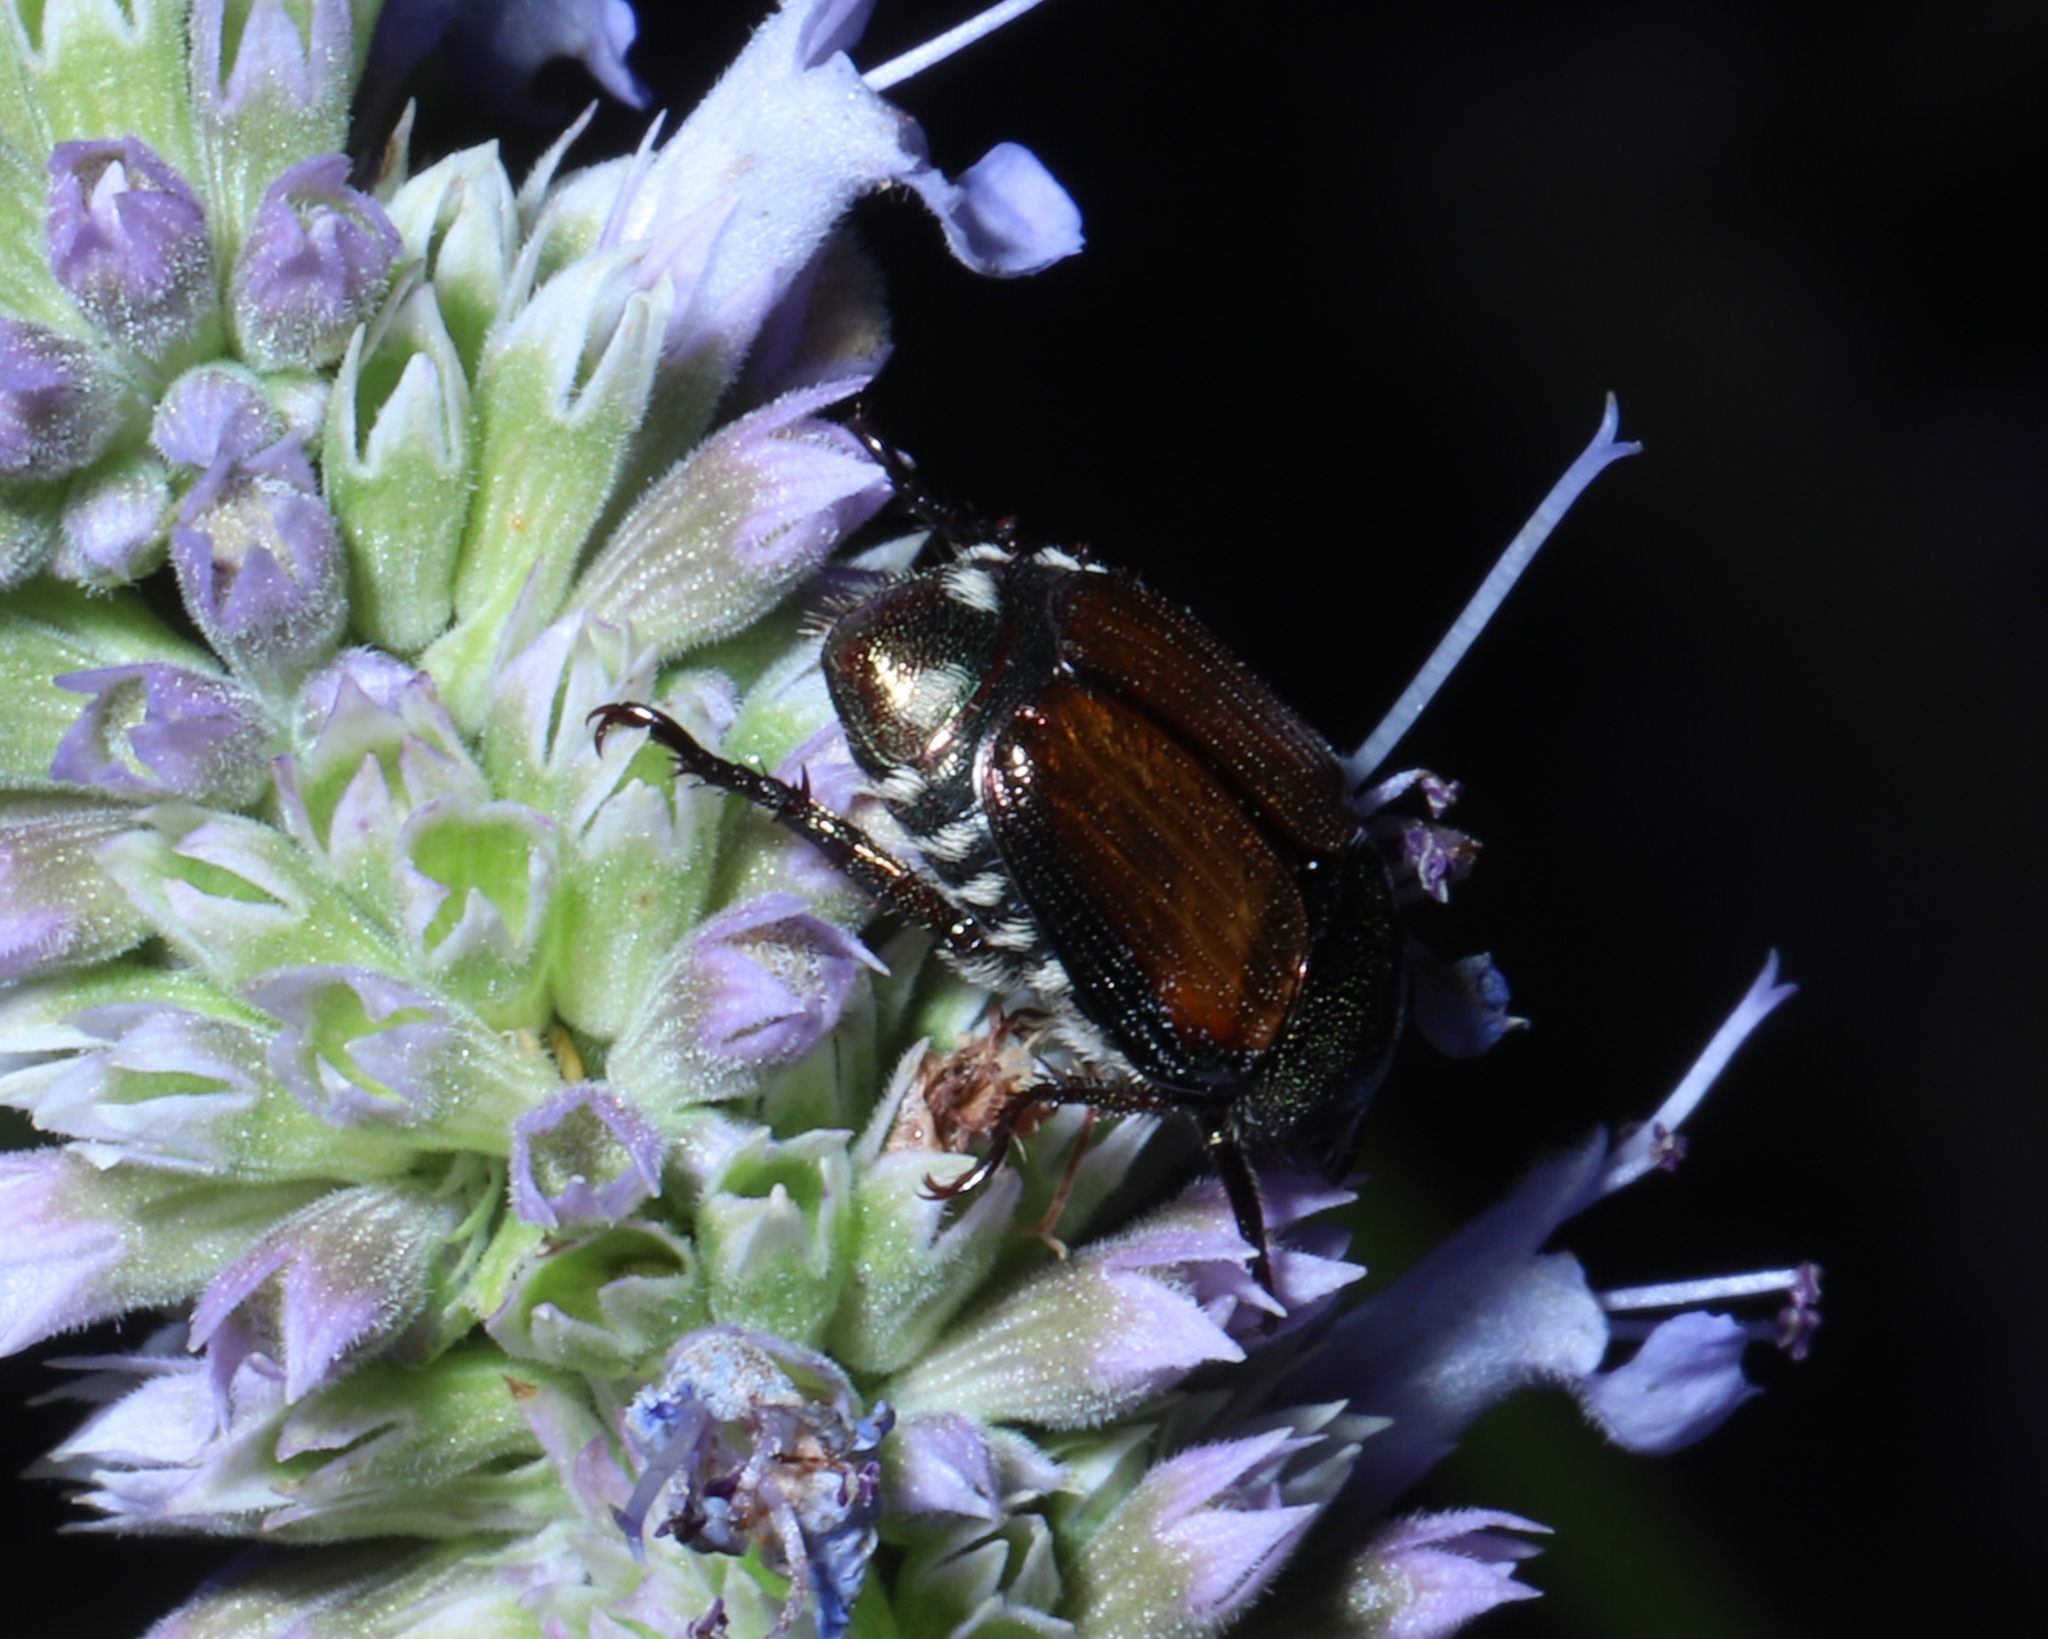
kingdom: Animalia
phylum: Arthropoda
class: Insecta
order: Coleoptera
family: Scarabaeidae
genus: Popillia
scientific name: Popillia japonica
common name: Japanese beetle
